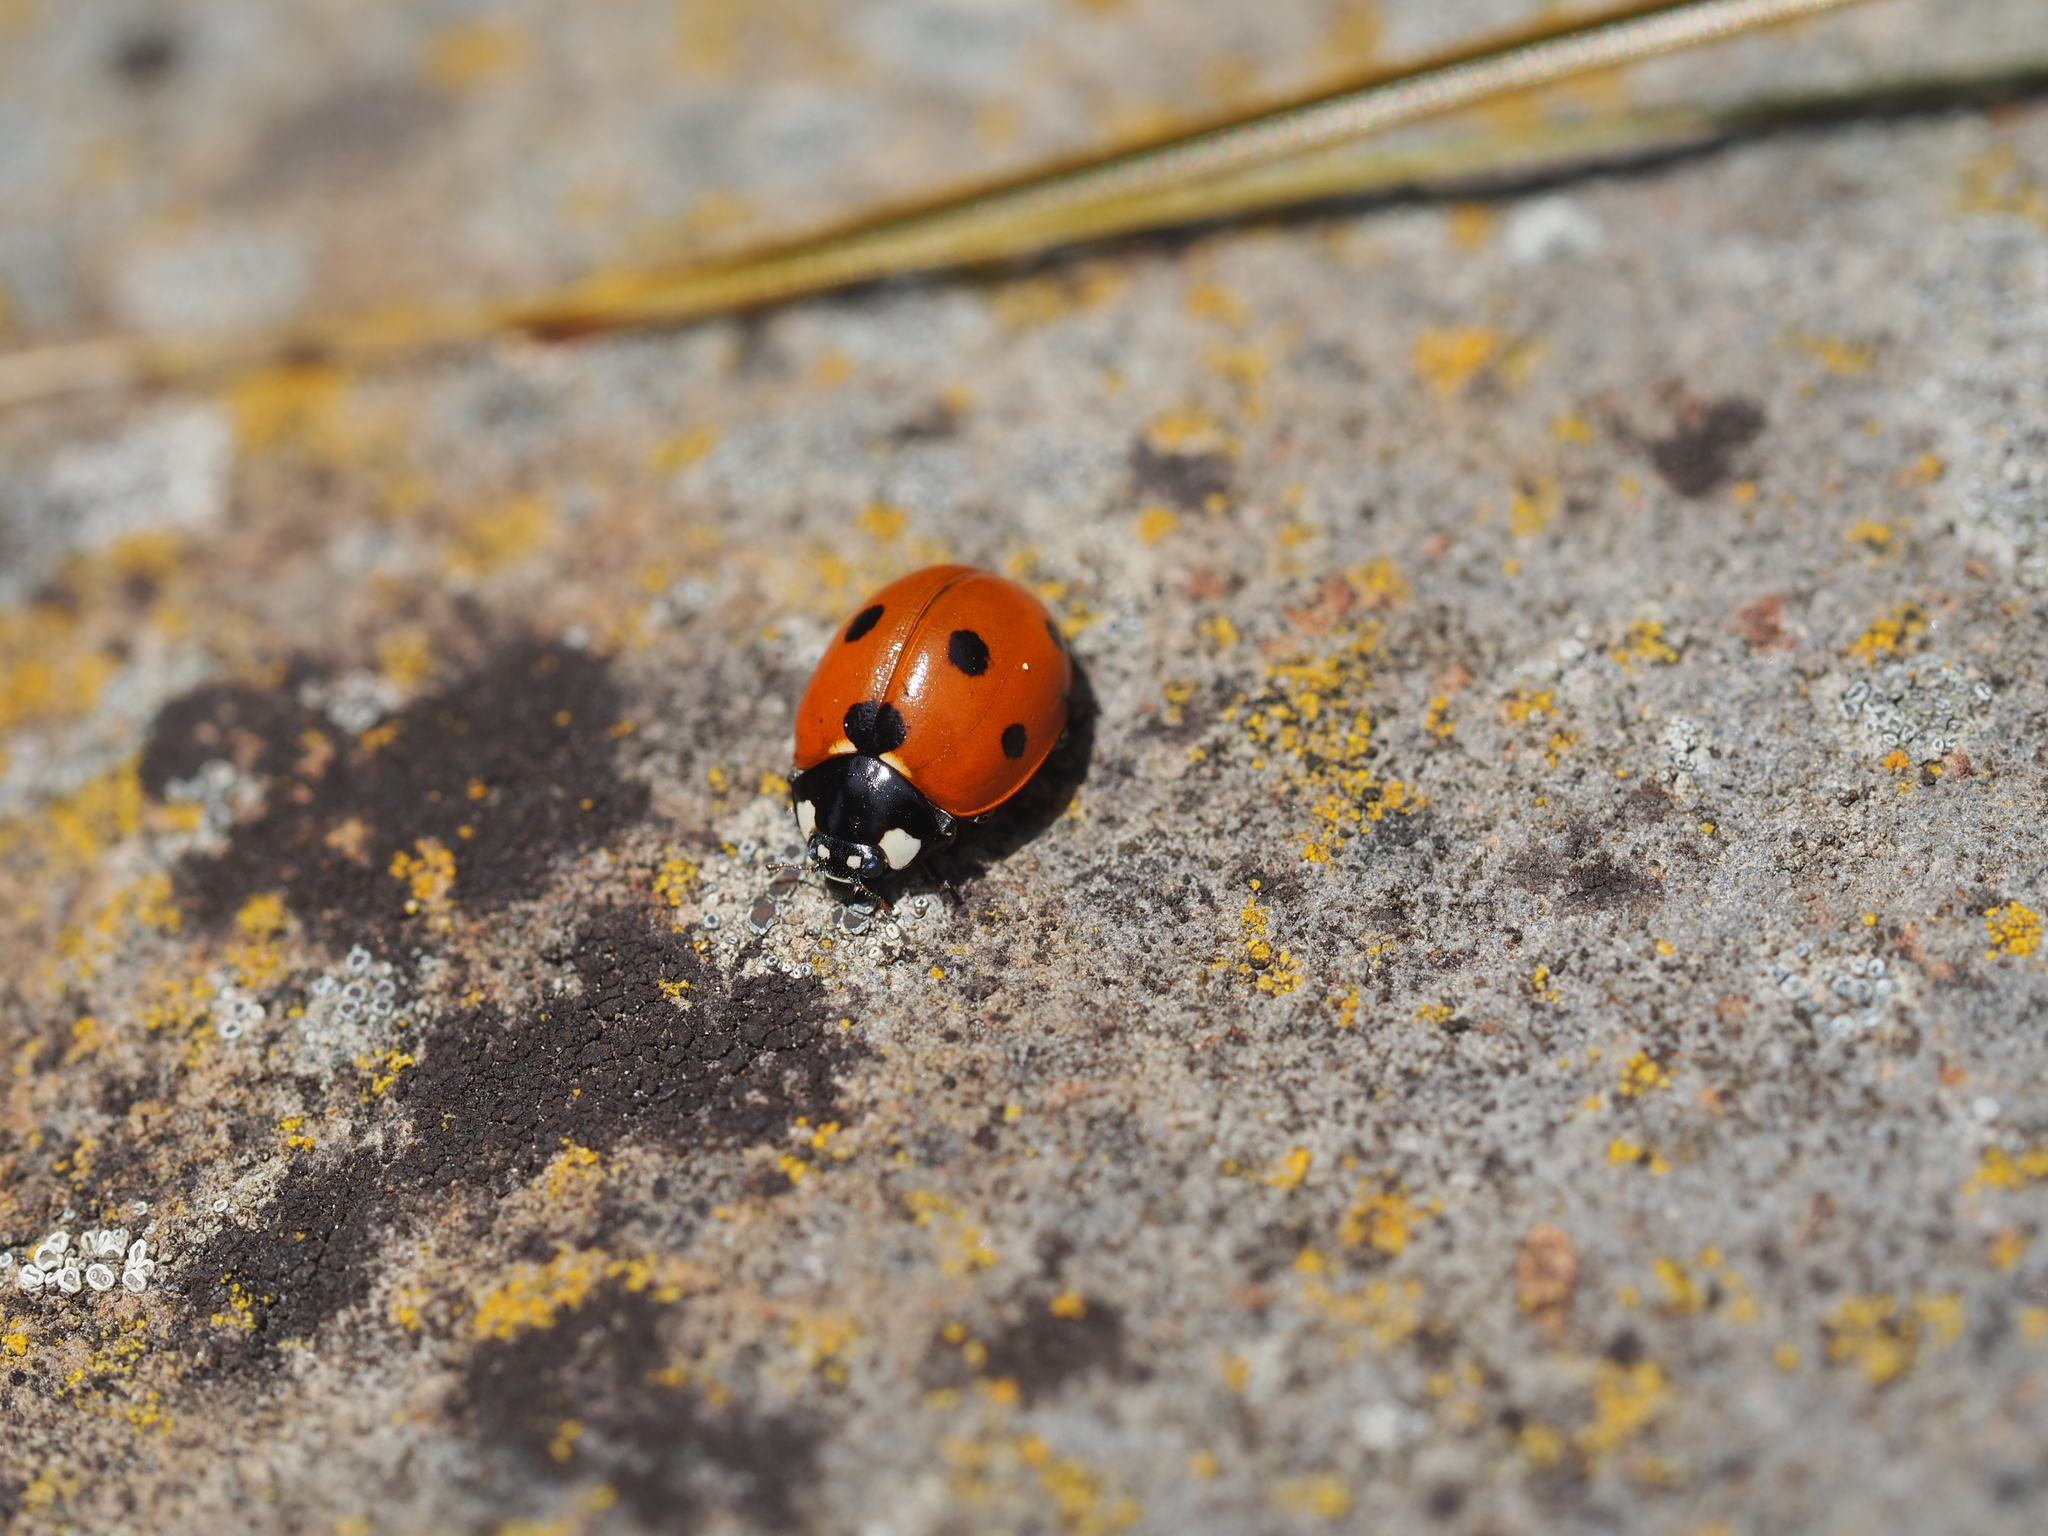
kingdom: Animalia
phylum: Arthropoda
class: Insecta
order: Coleoptera
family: Coccinellidae
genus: Coccinella
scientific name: Coccinella septempunctata
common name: Sevenspotted lady beetle
